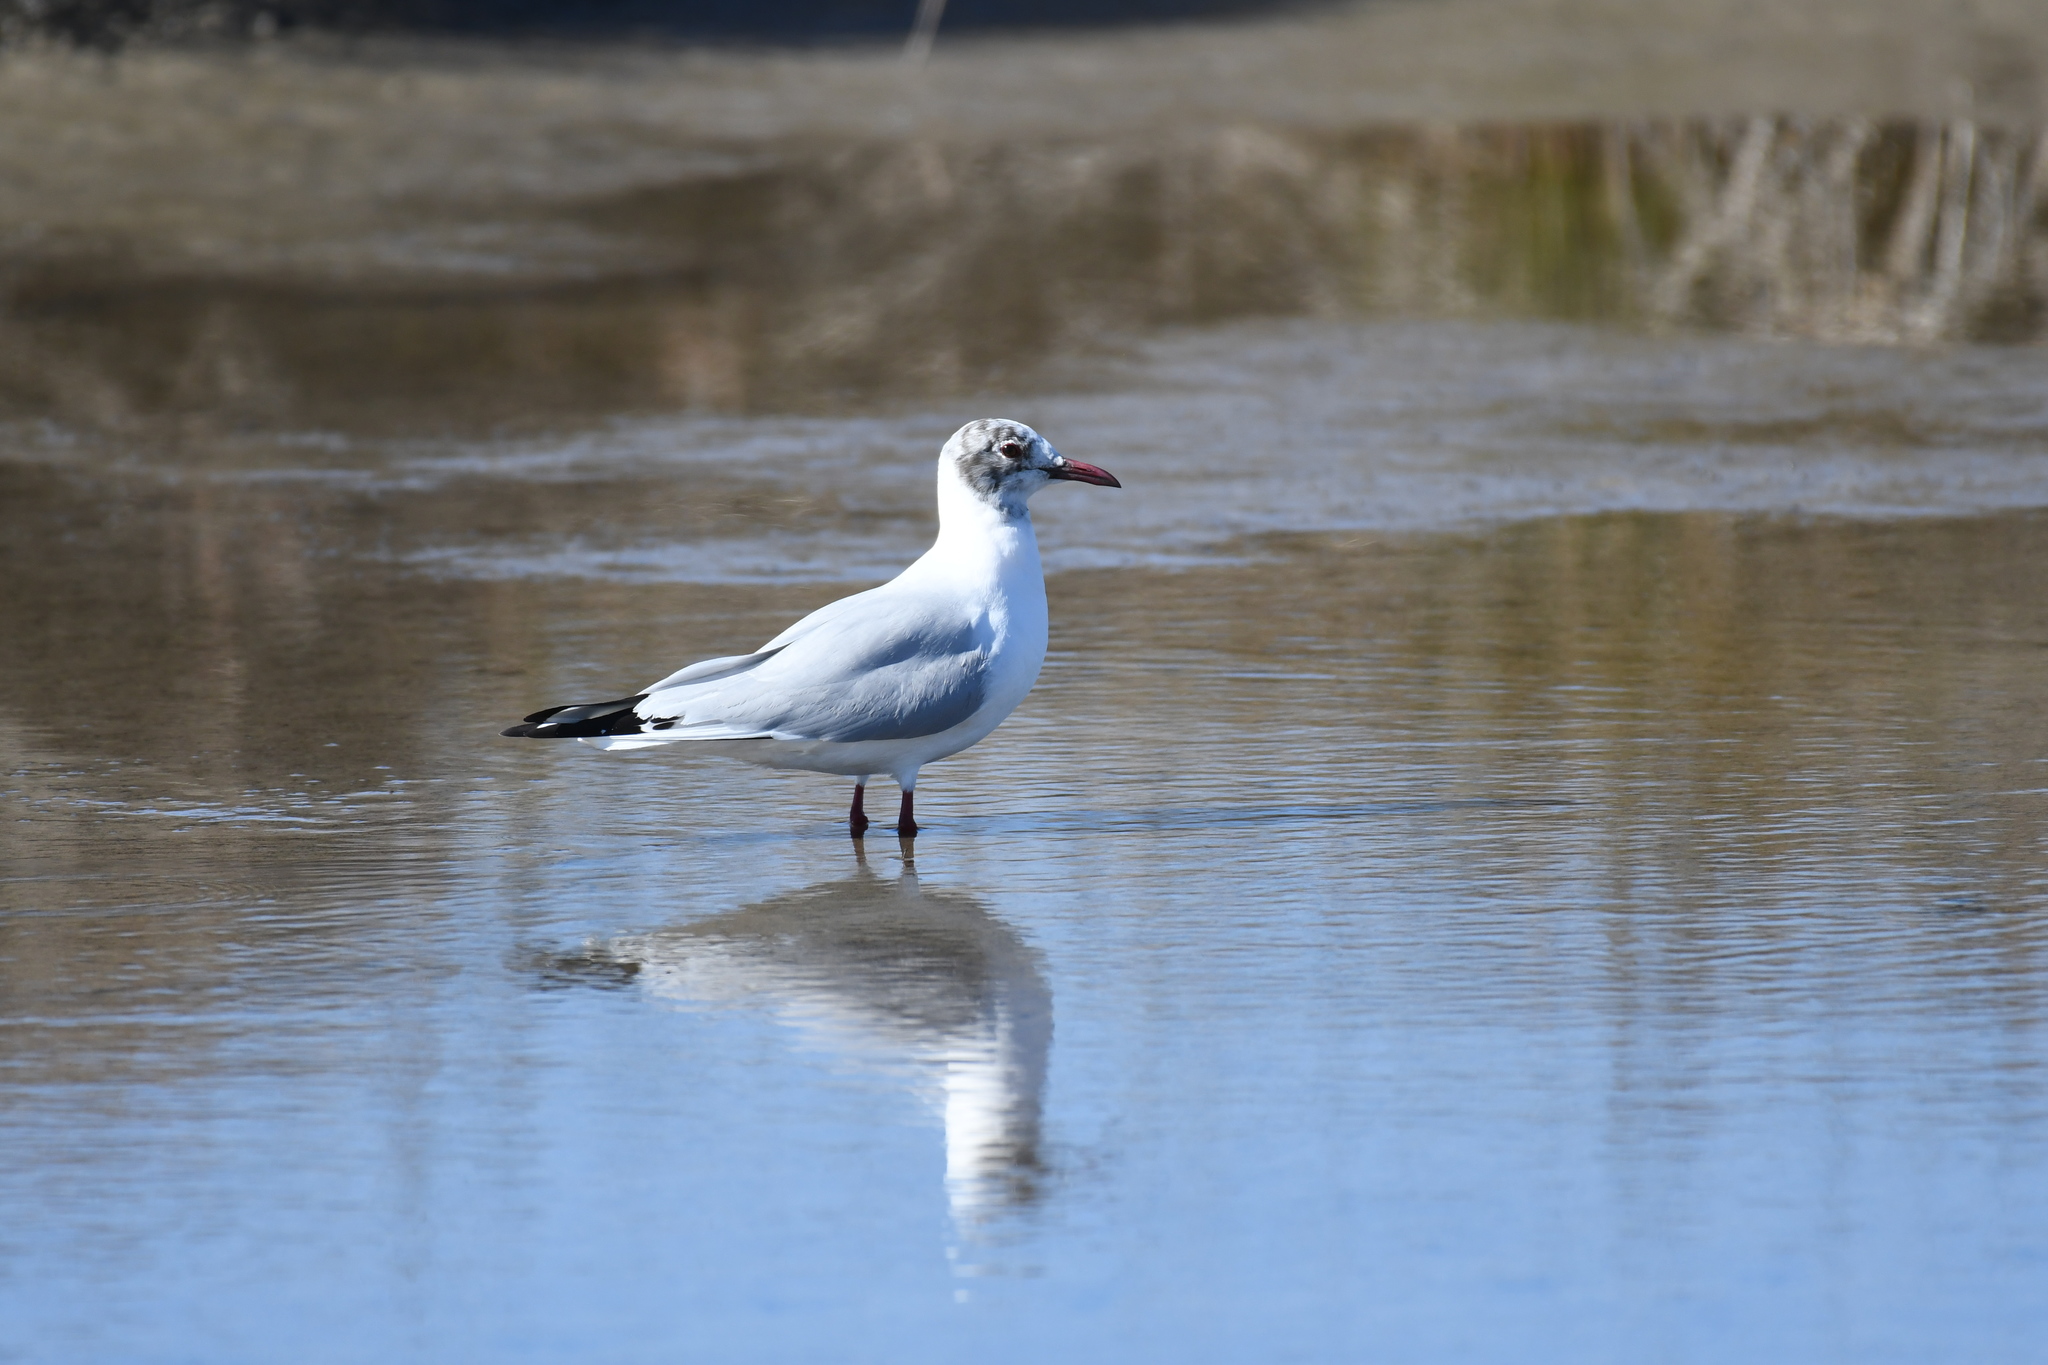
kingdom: Animalia
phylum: Chordata
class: Aves
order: Charadriiformes
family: Laridae
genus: Chroicocephalus
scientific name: Chroicocephalus ridibundus
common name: Black-headed gull
